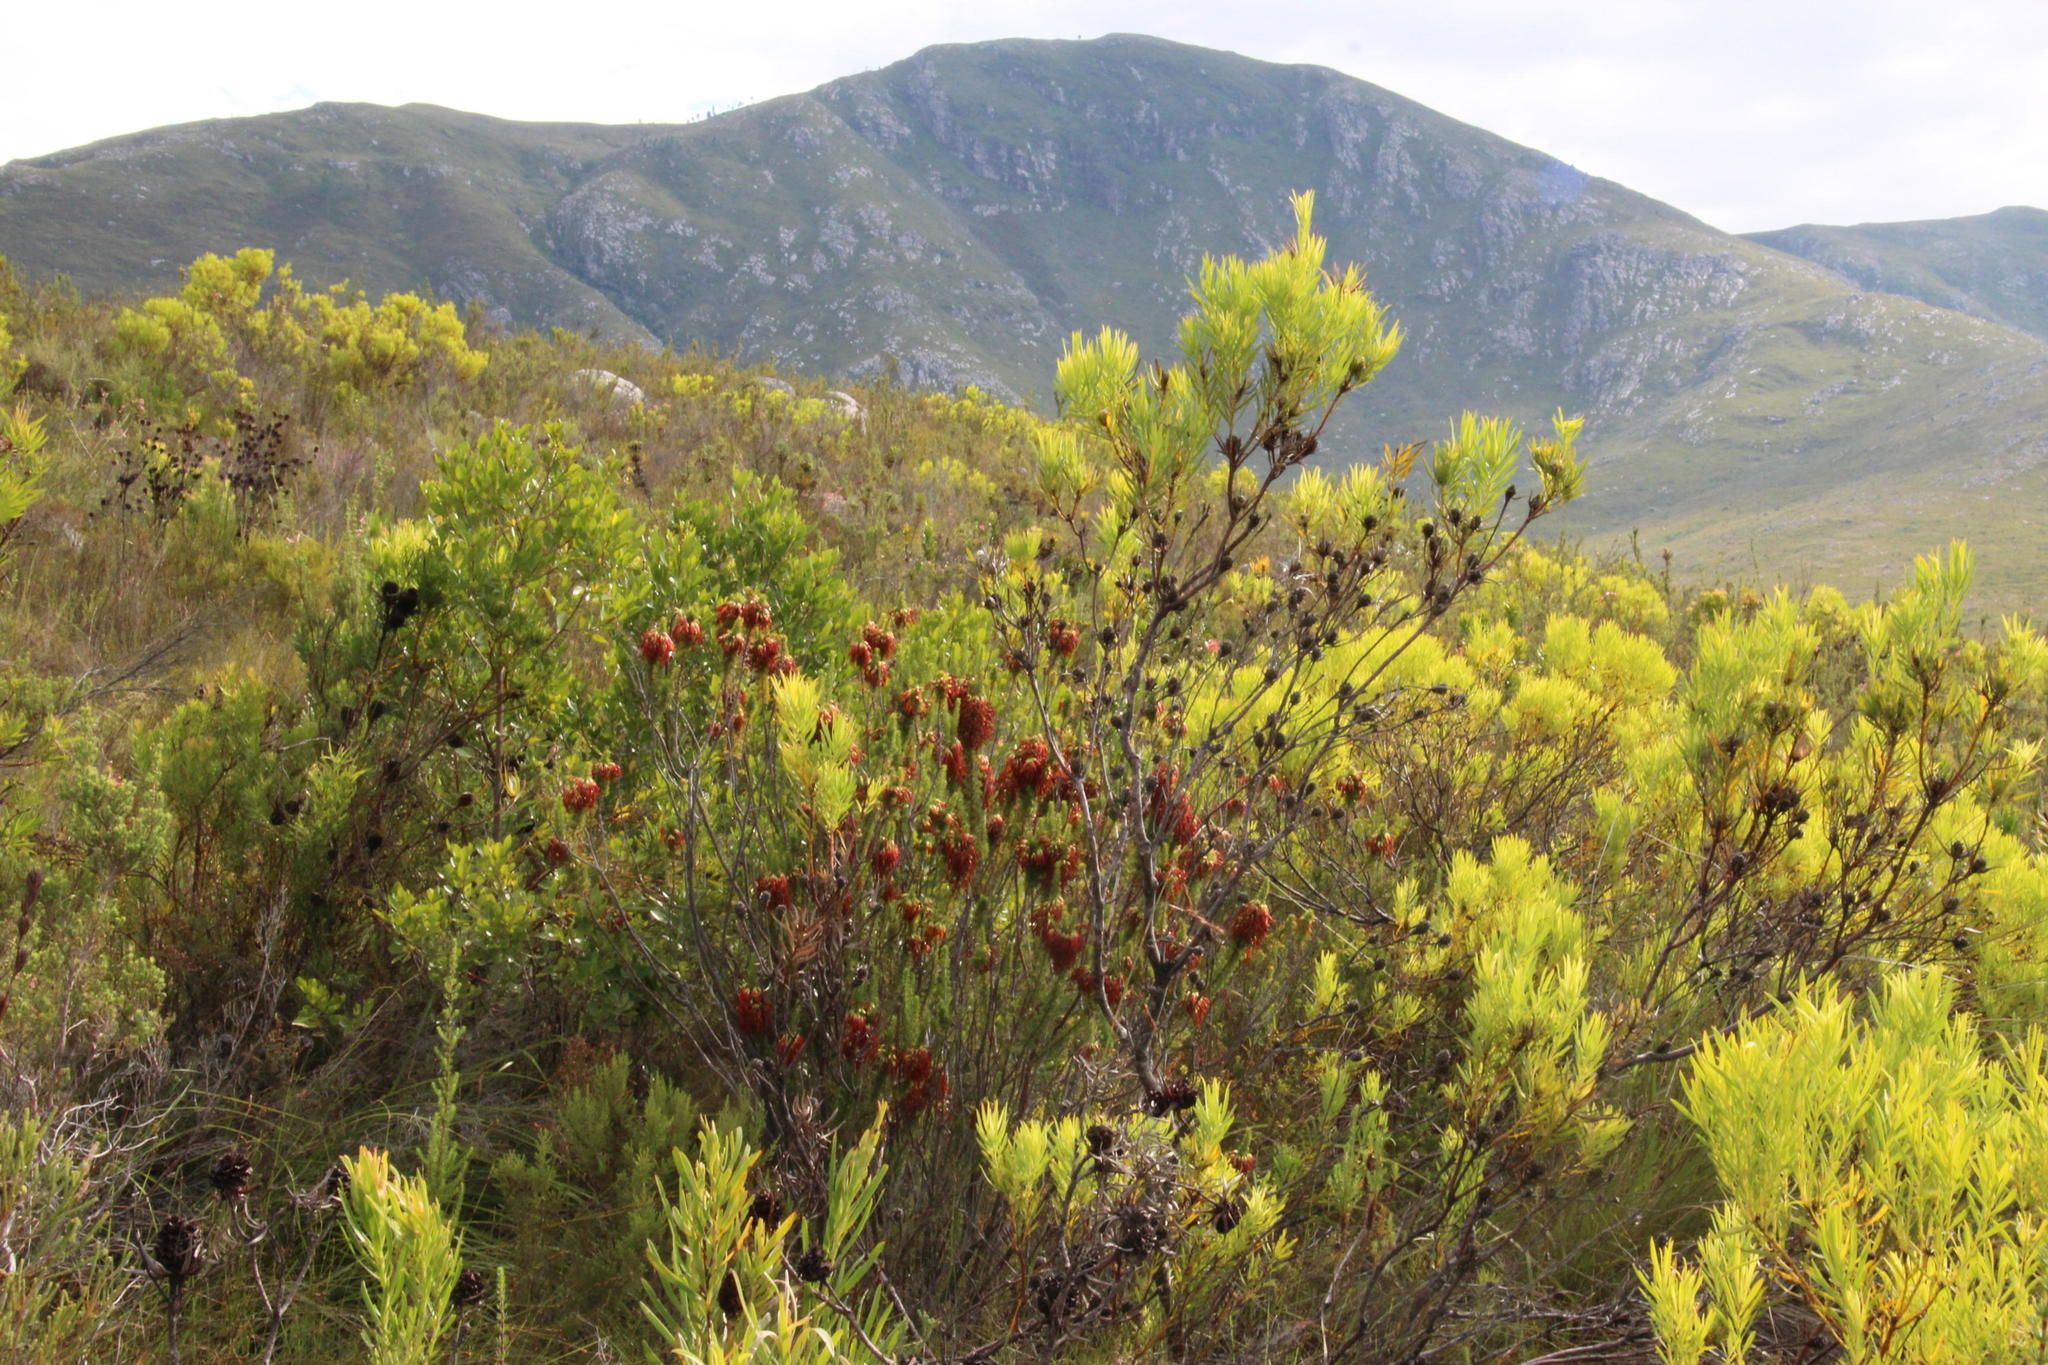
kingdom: Plantae
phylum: Tracheophyta
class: Magnoliopsida
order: Ericales
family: Ericaceae
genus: Erica
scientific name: Erica coccinea
